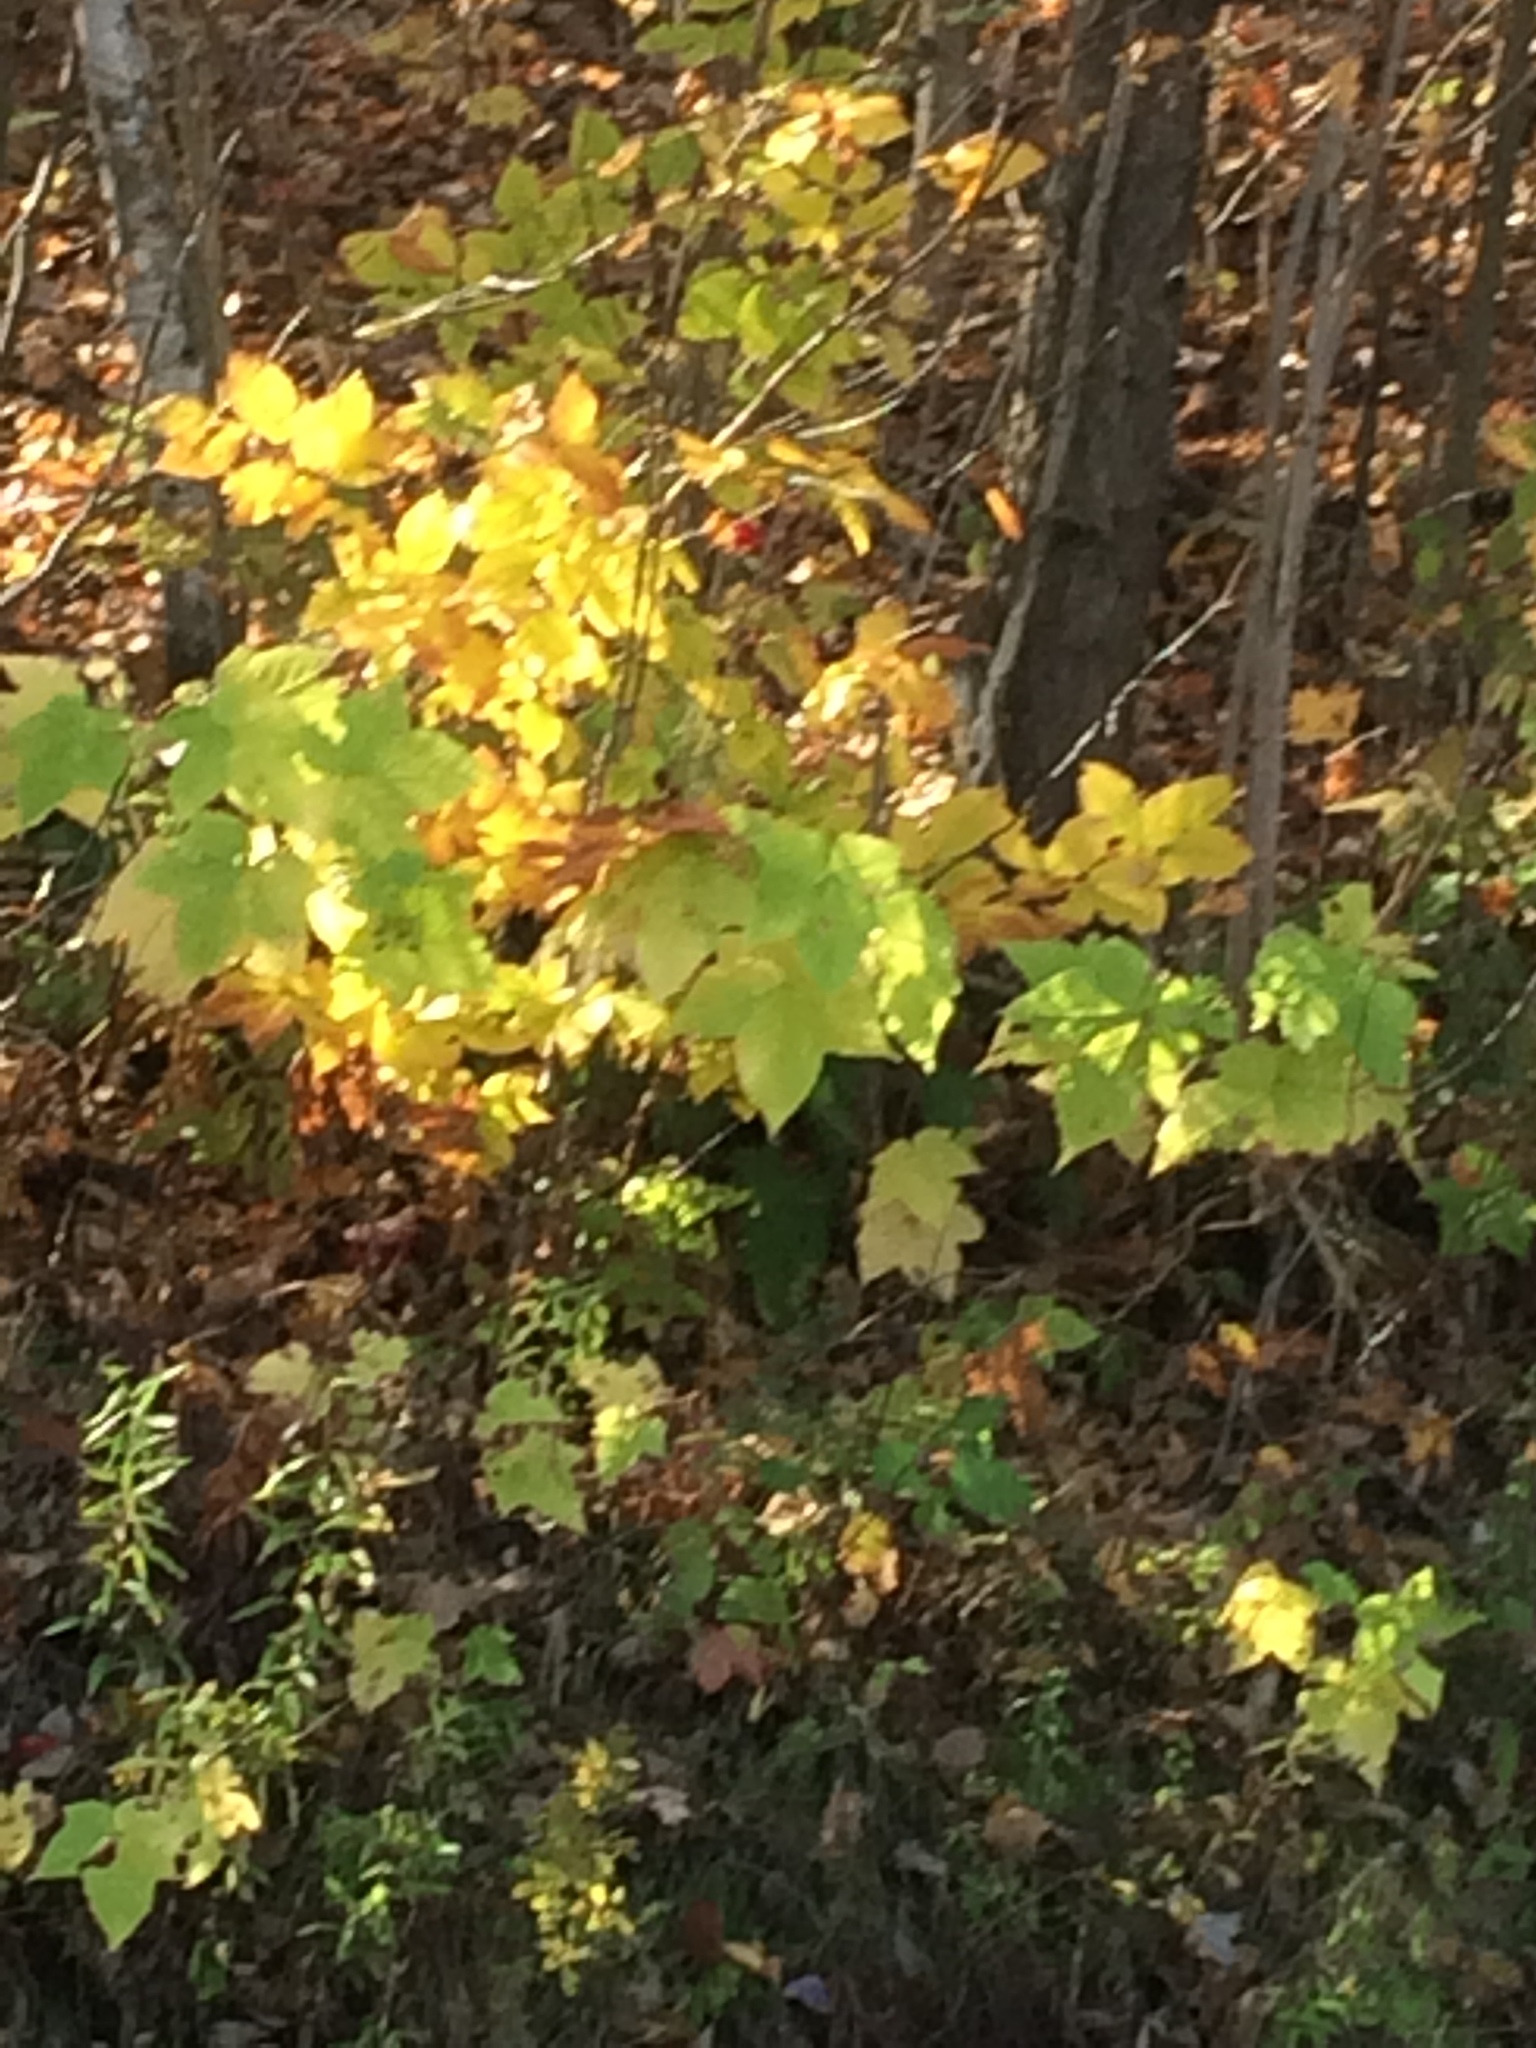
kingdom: Plantae
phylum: Tracheophyta
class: Magnoliopsida
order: Rosales
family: Rosaceae
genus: Rubus
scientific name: Rubus odoratus
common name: Purple-flowered raspberry
